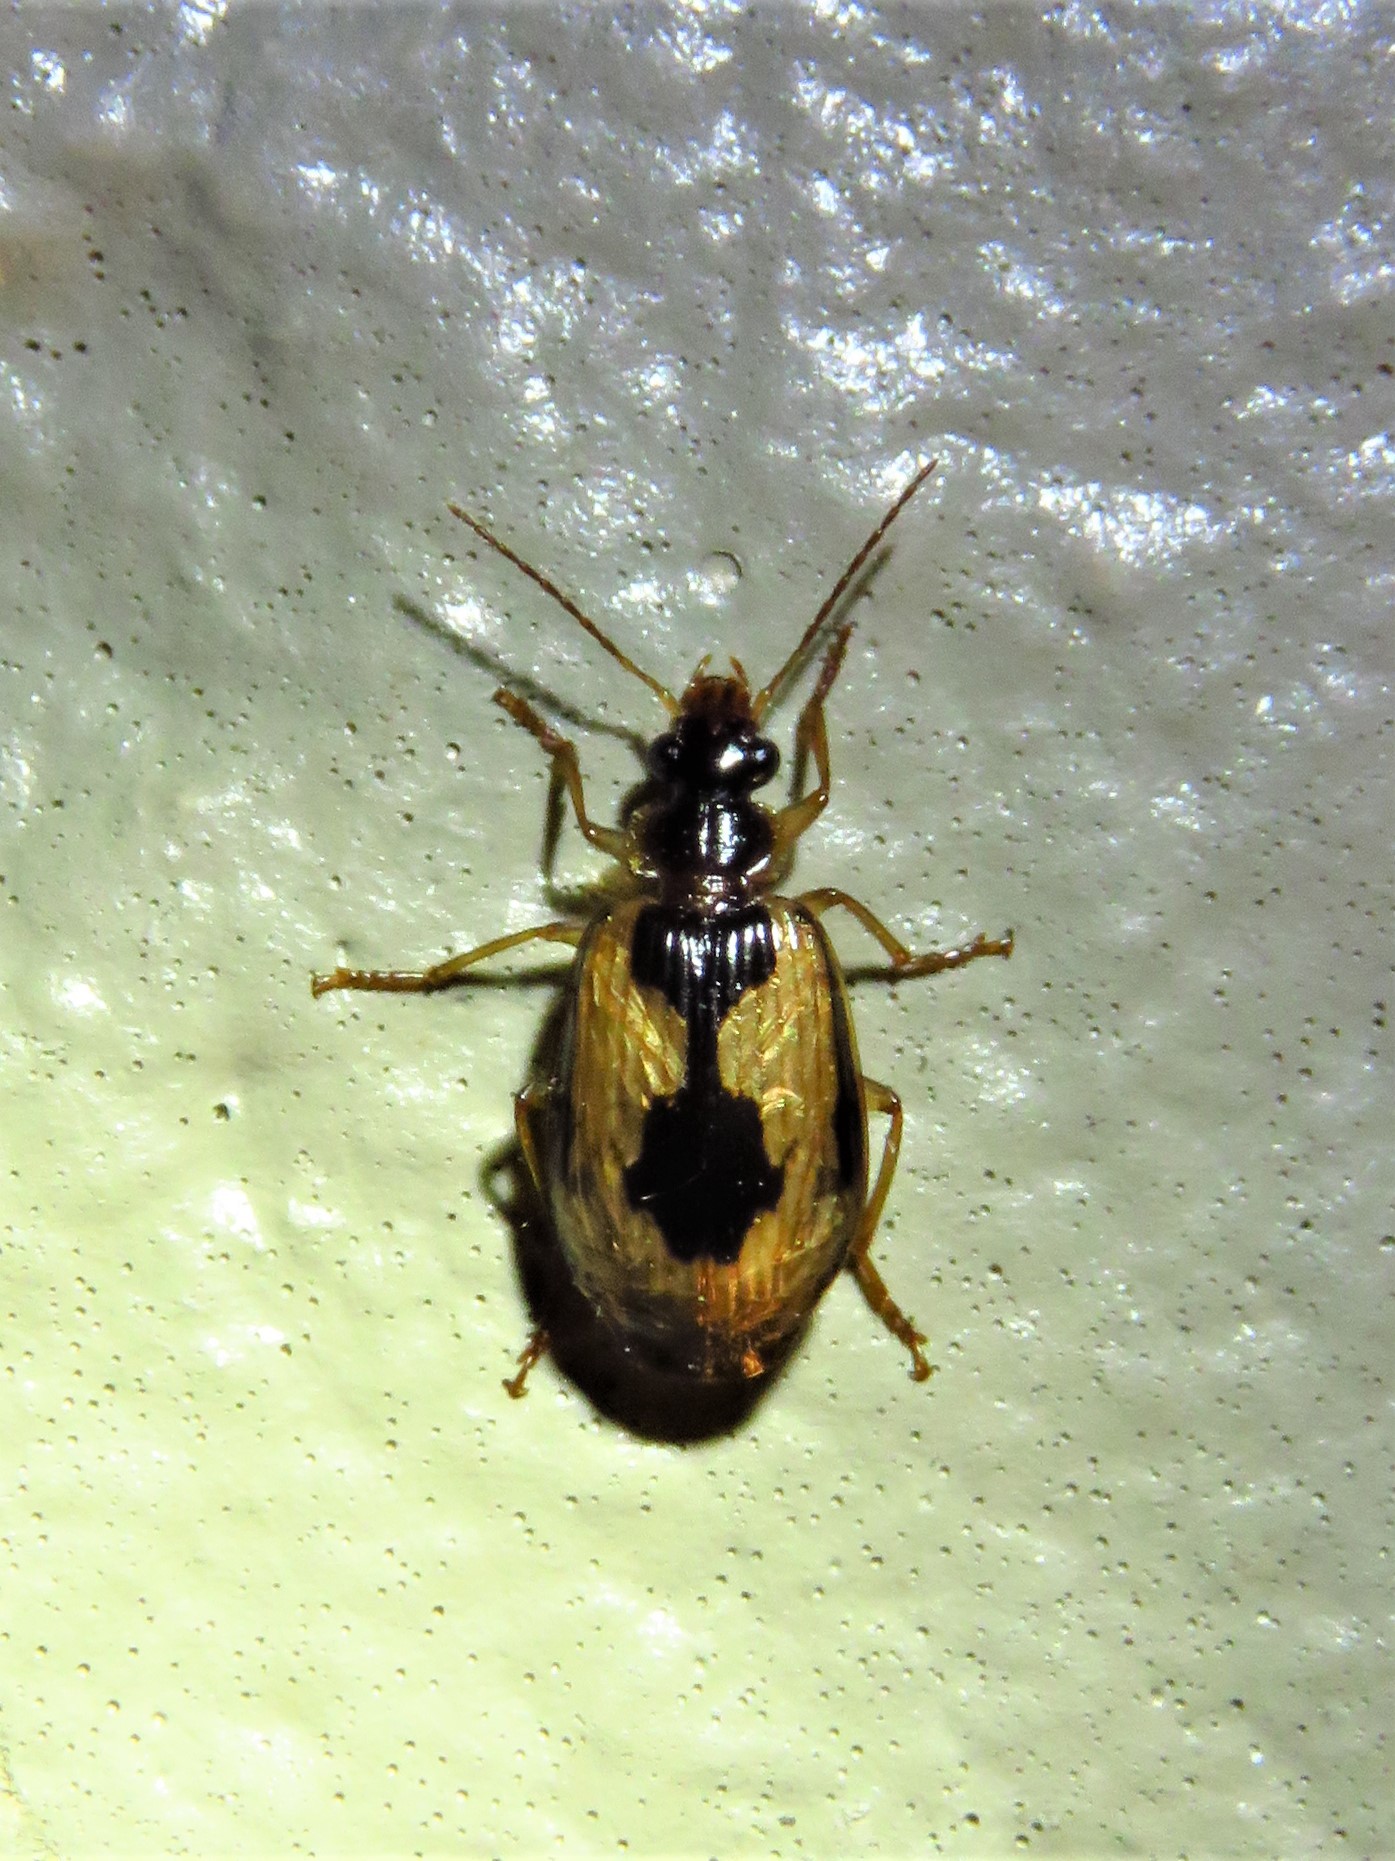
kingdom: Animalia
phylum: Arthropoda
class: Insecta
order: Coleoptera
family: Carabidae
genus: Lebia
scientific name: Lebia fuscata
